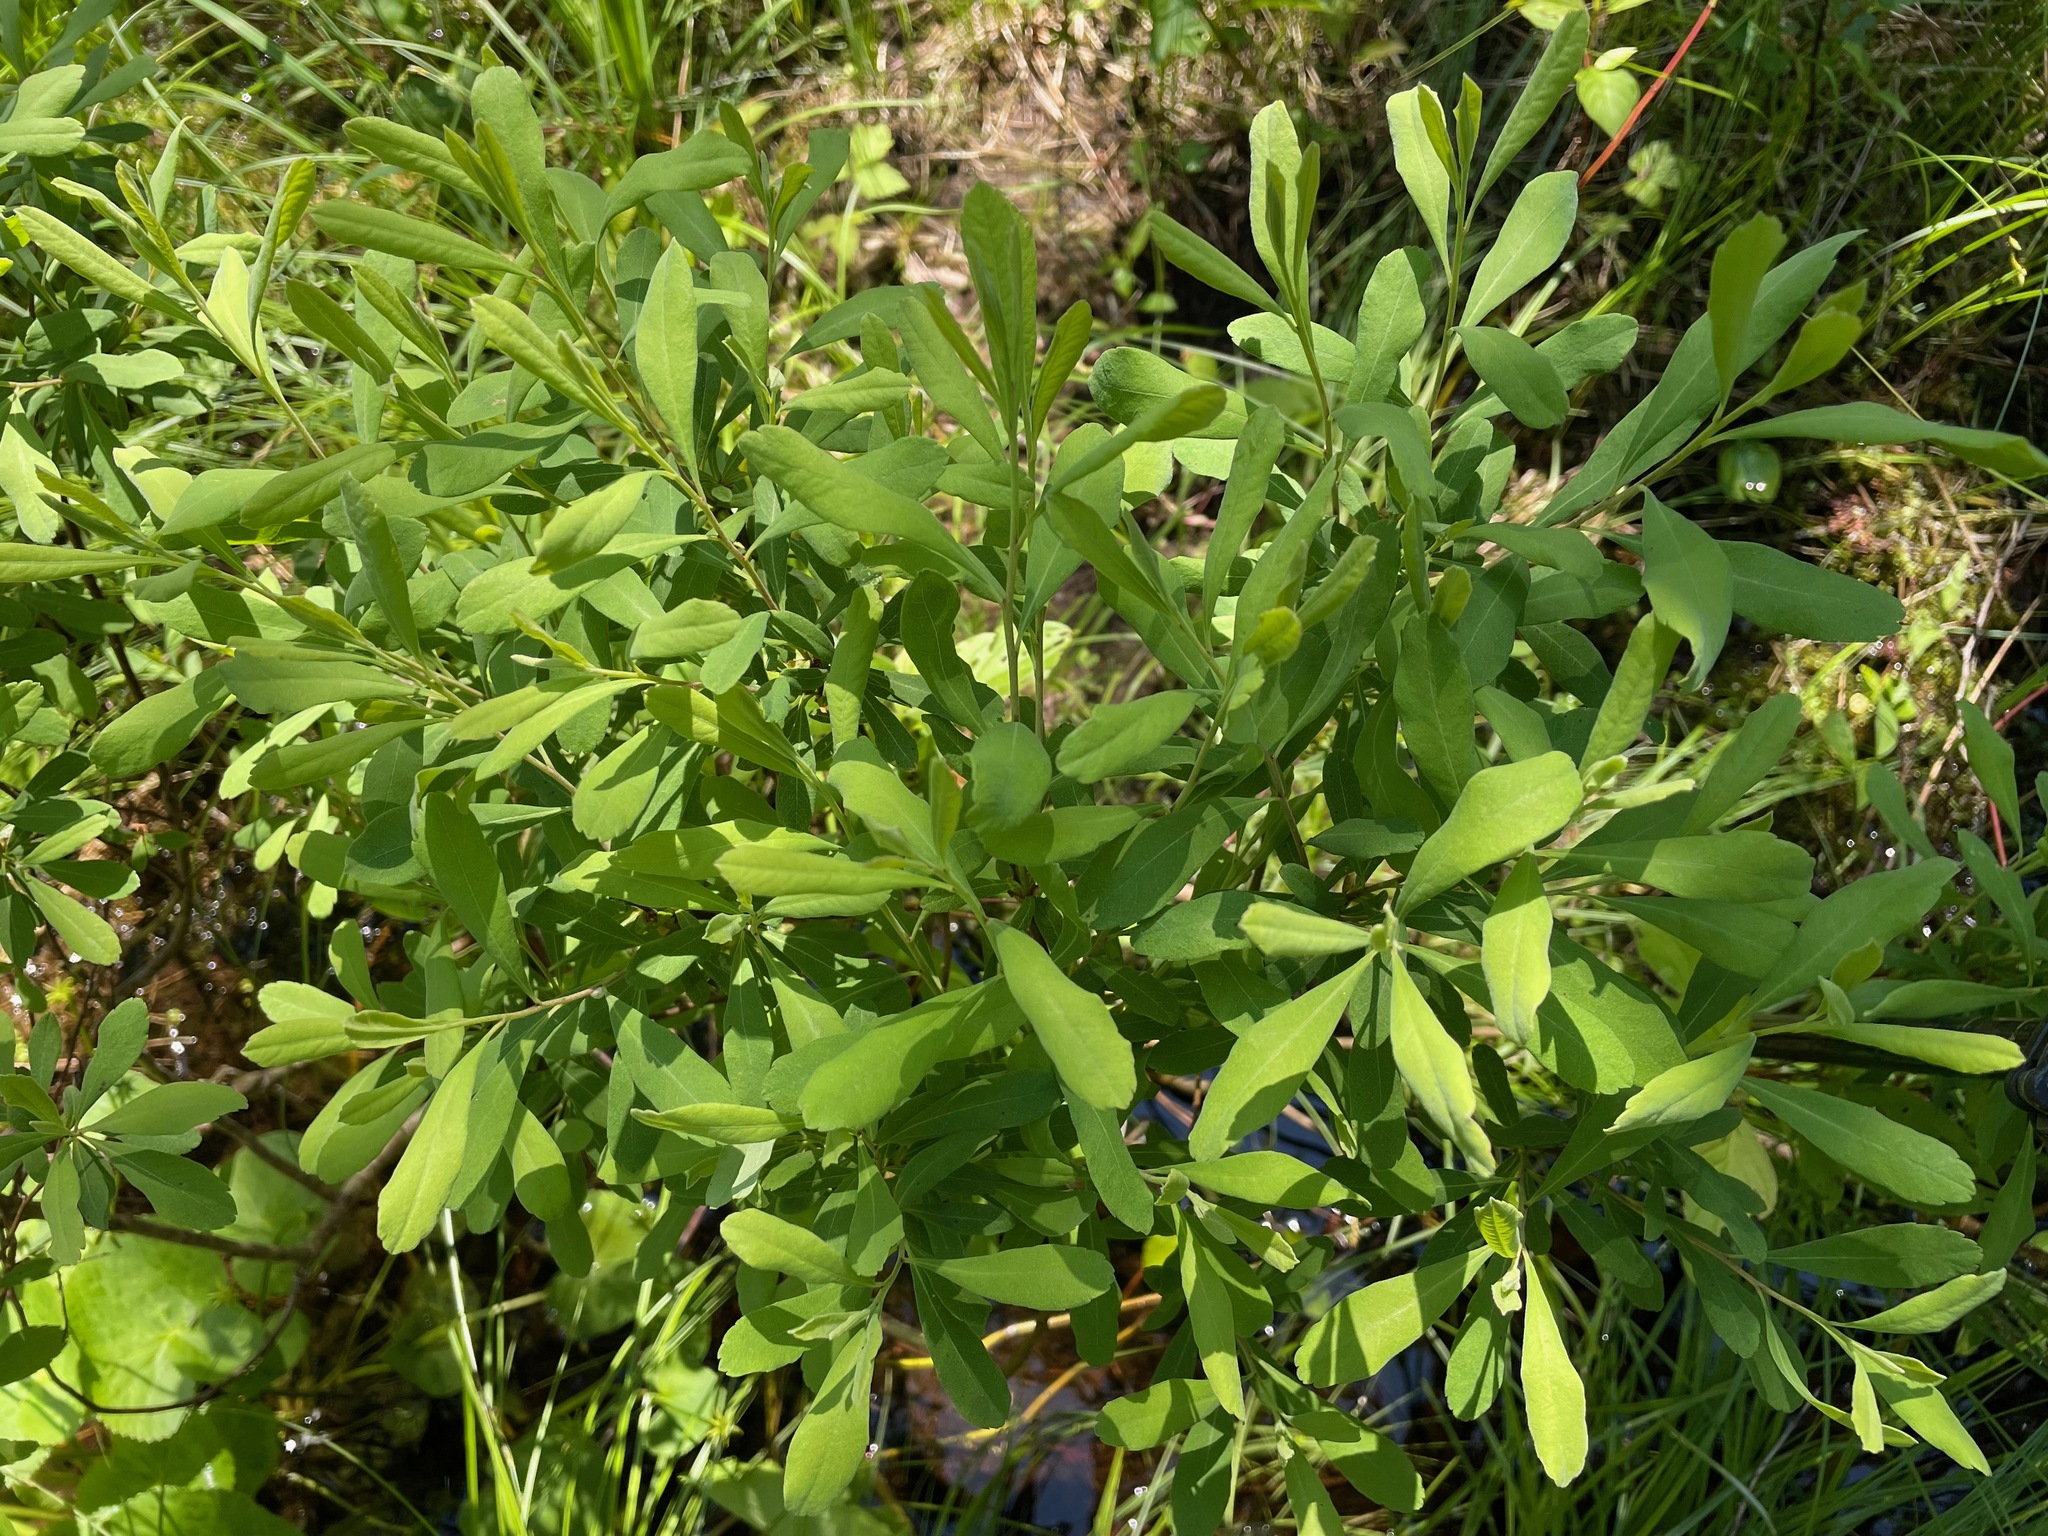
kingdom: Plantae
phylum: Tracheophyta
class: Magnoliopsida
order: Fagales
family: Myricaceae
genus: Myrica
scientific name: Myrica gale
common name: Sweet gale
